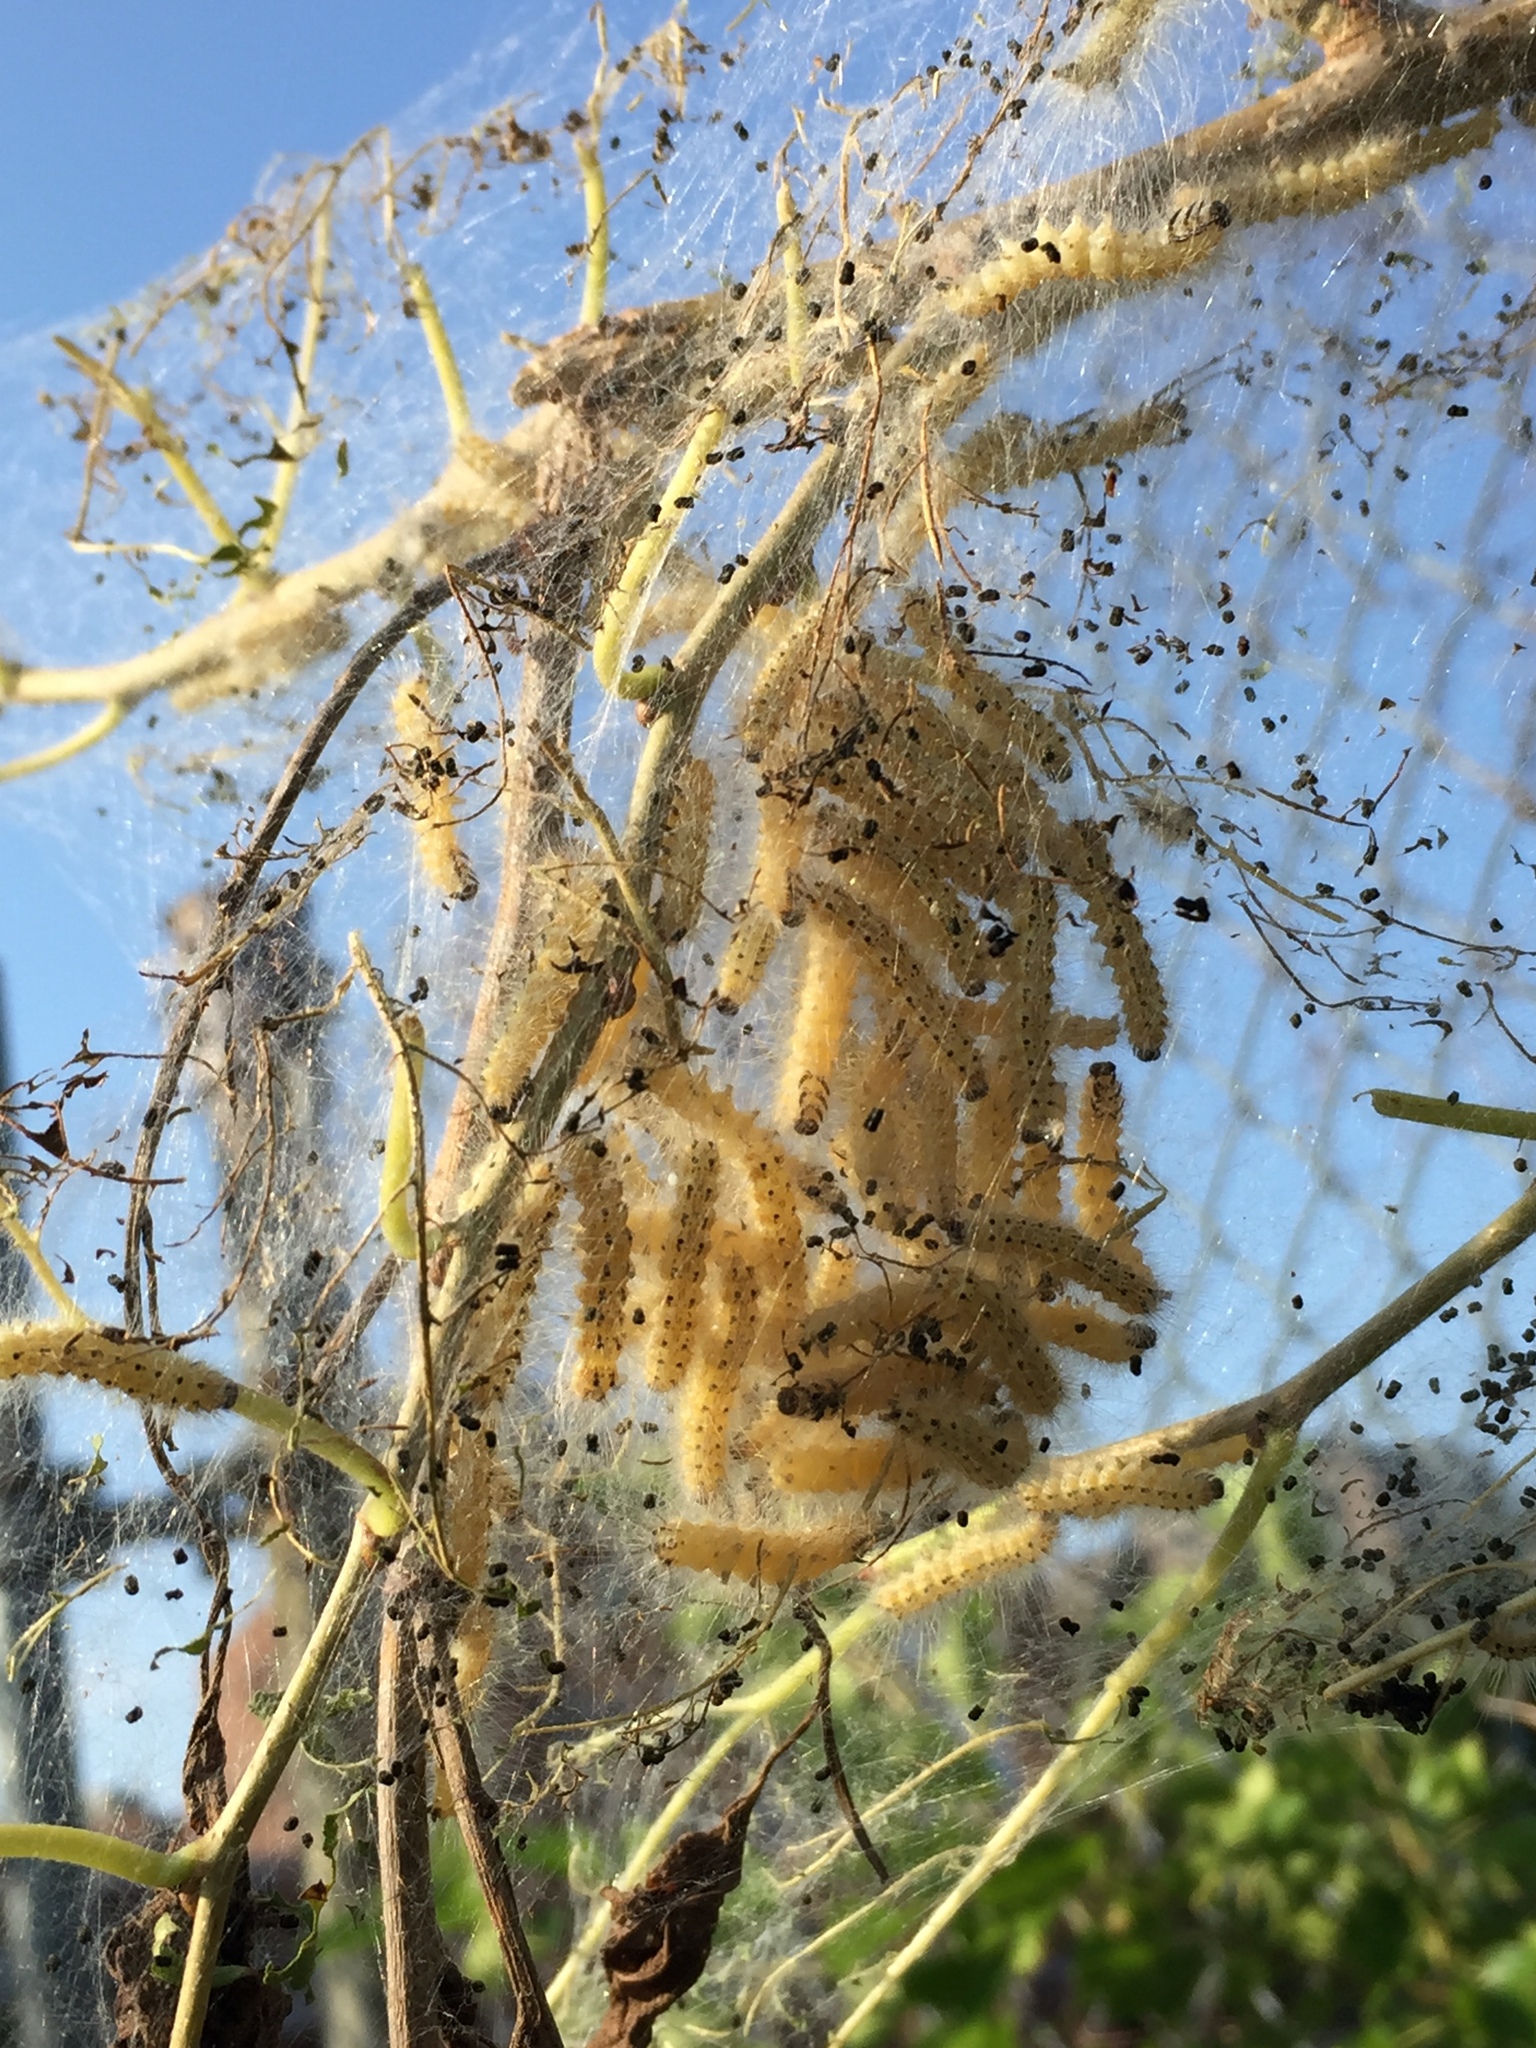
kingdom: Animalia
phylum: Arthropoda
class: Insecta
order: Lepidoptera
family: Erebidae
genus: Hyphantria
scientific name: Hyphantria cunea
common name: American white moth
